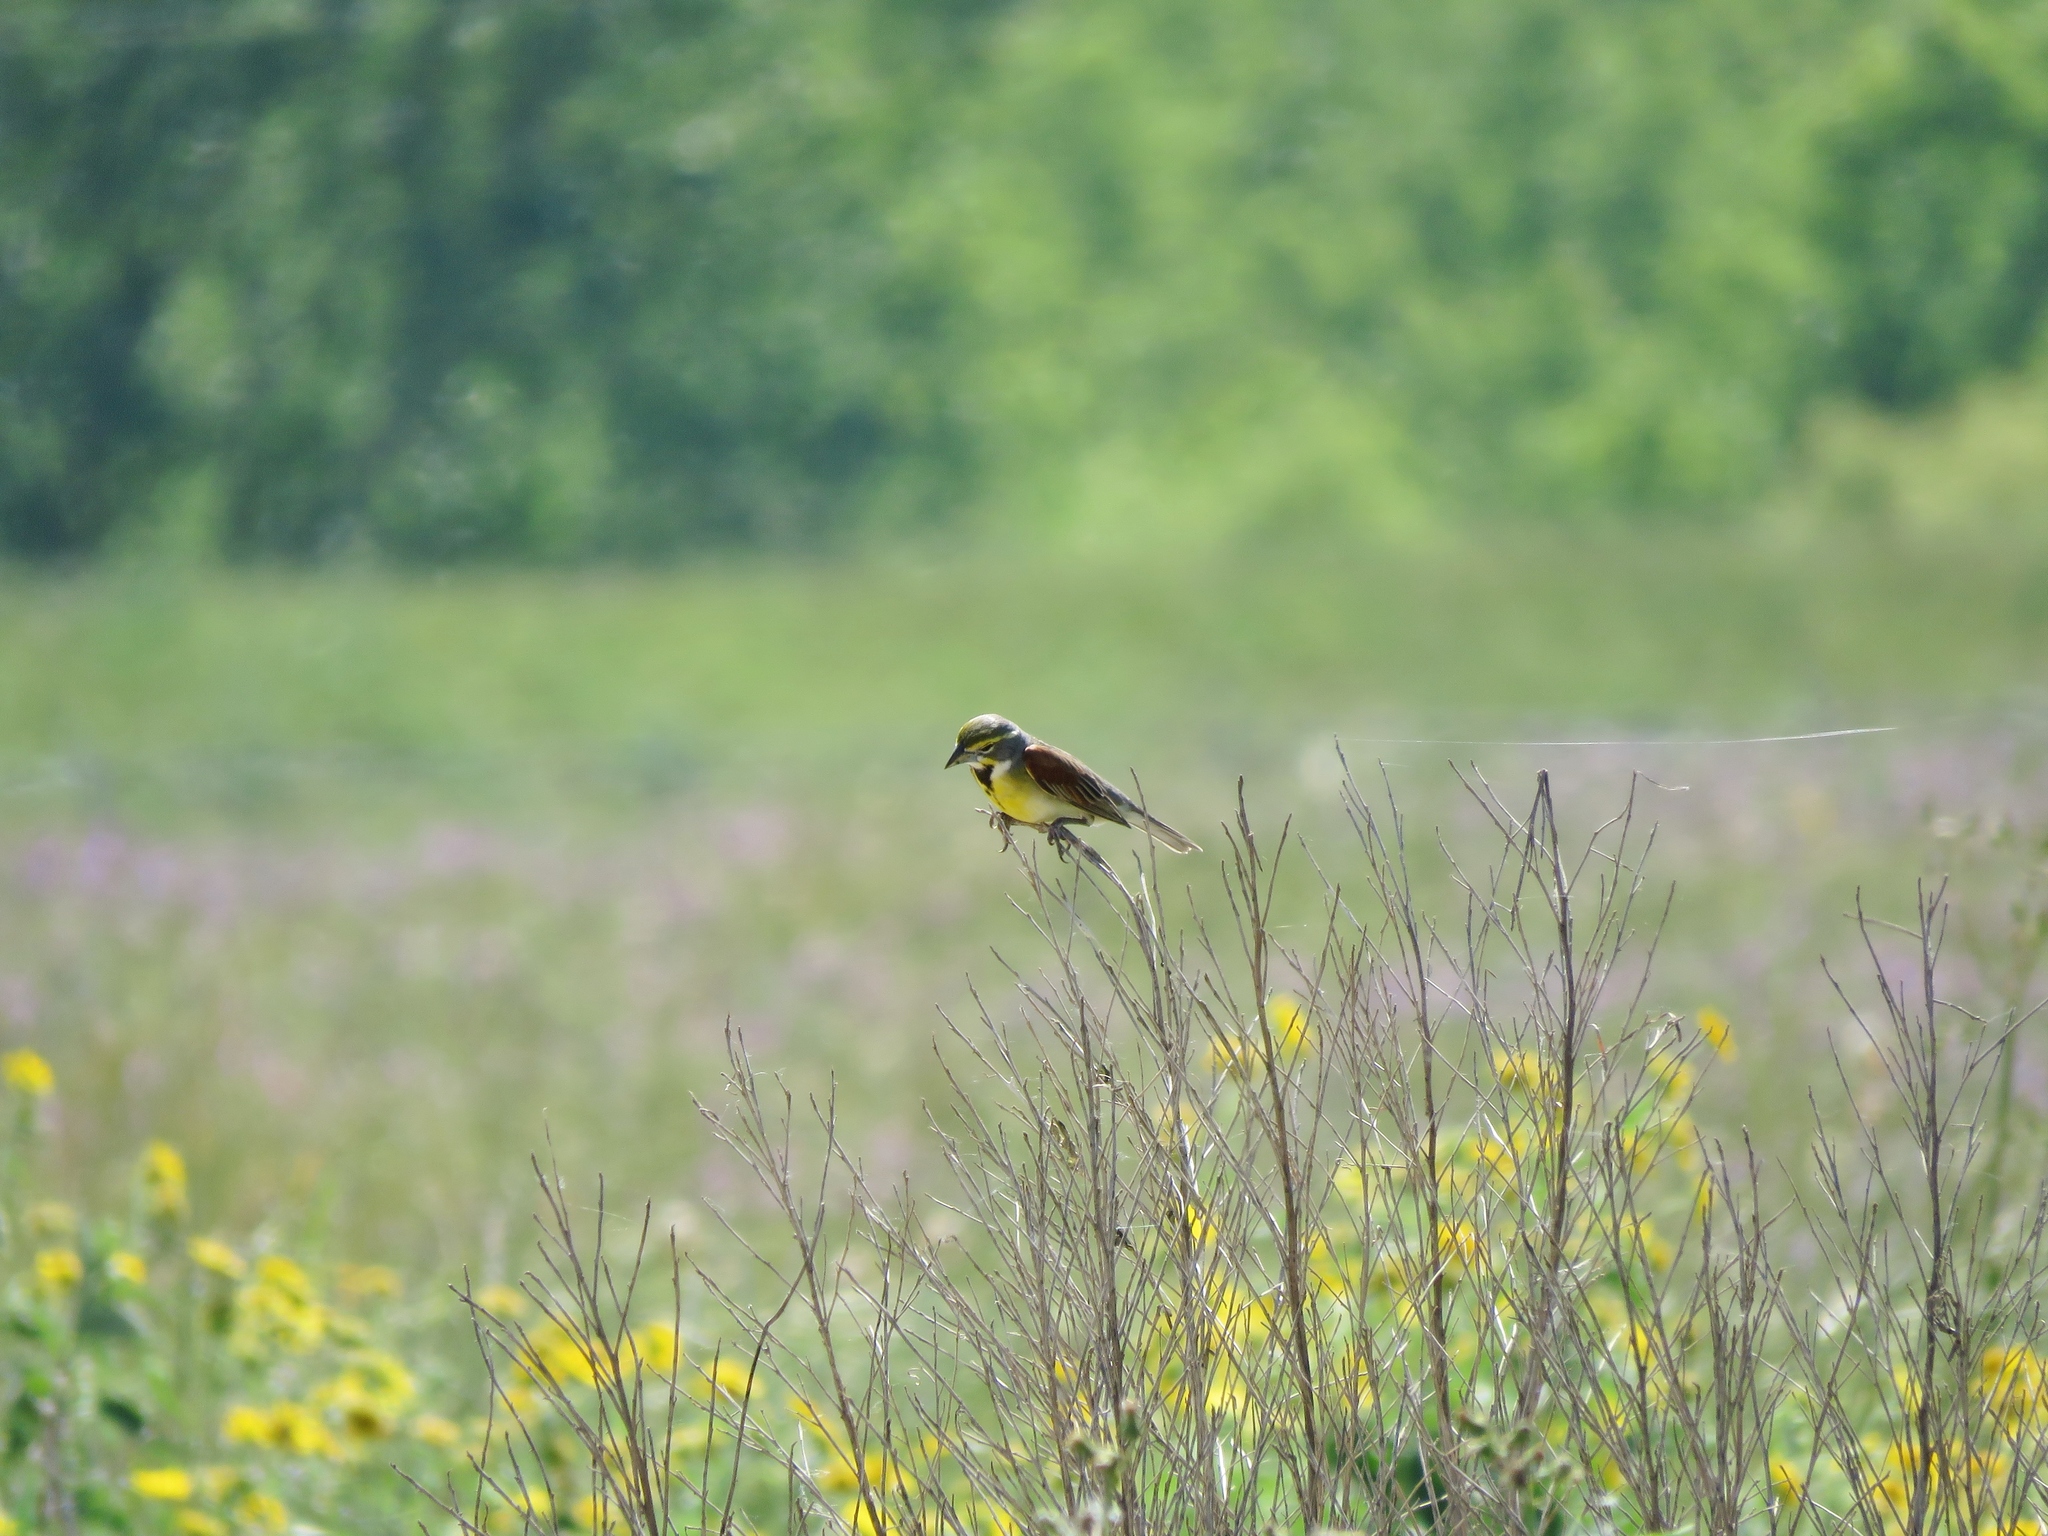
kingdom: Animalia
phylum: Chordata
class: Aves
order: Passeriformes
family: Cardinalidae
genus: Spiza
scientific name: Spiza americana
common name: Dickcissel
